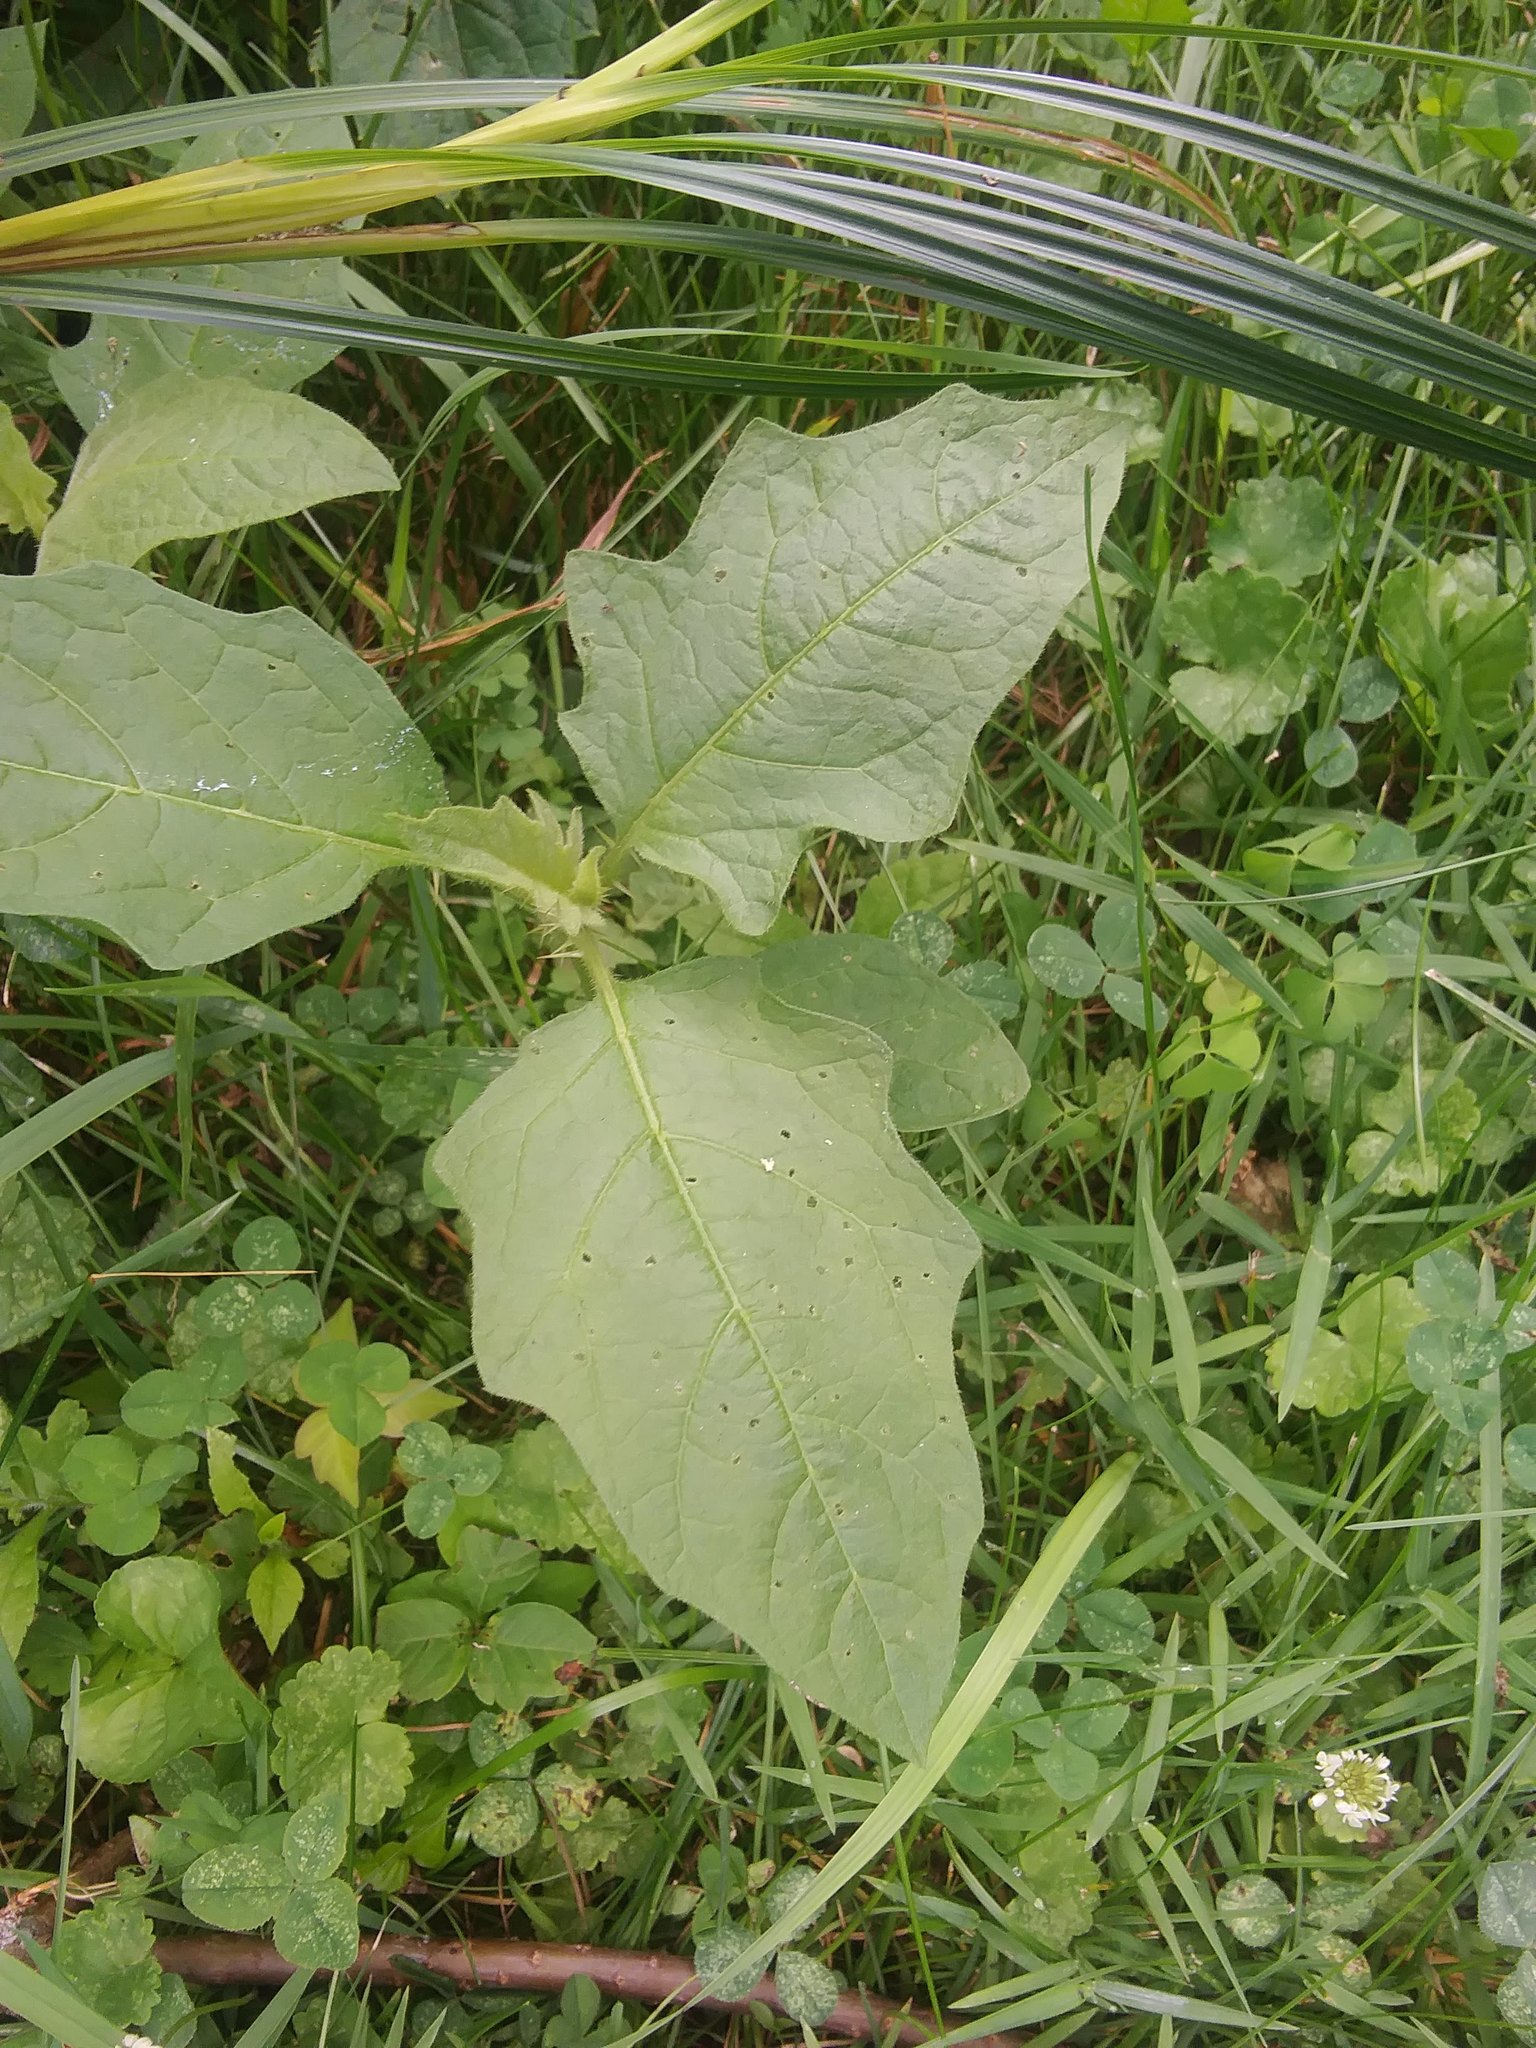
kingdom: Plantae
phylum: Tracheophyta
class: Magnoliopsida
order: Solanales
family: Solanaceae
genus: Solanum
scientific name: Solanum carolinense
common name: Horse-nettle
